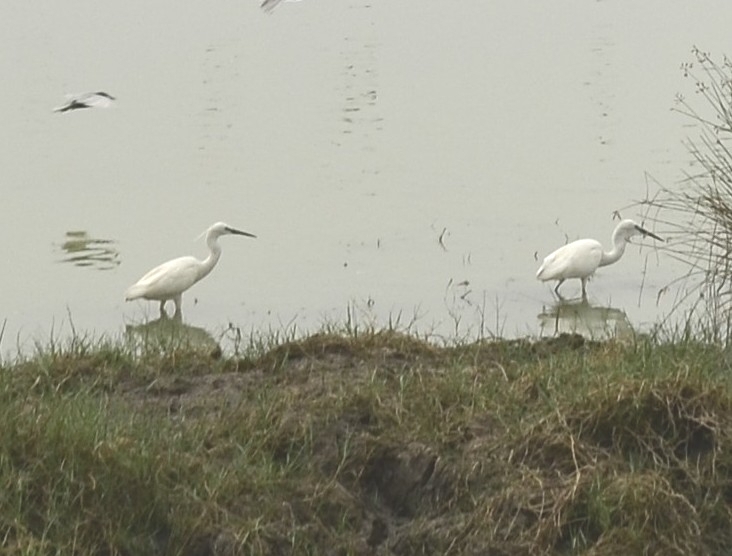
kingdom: Animalia
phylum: Chordata
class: Aves
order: Pelecaniformes
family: Ardeidae
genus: Egretta
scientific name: Egretta garzetta
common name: Little egret
